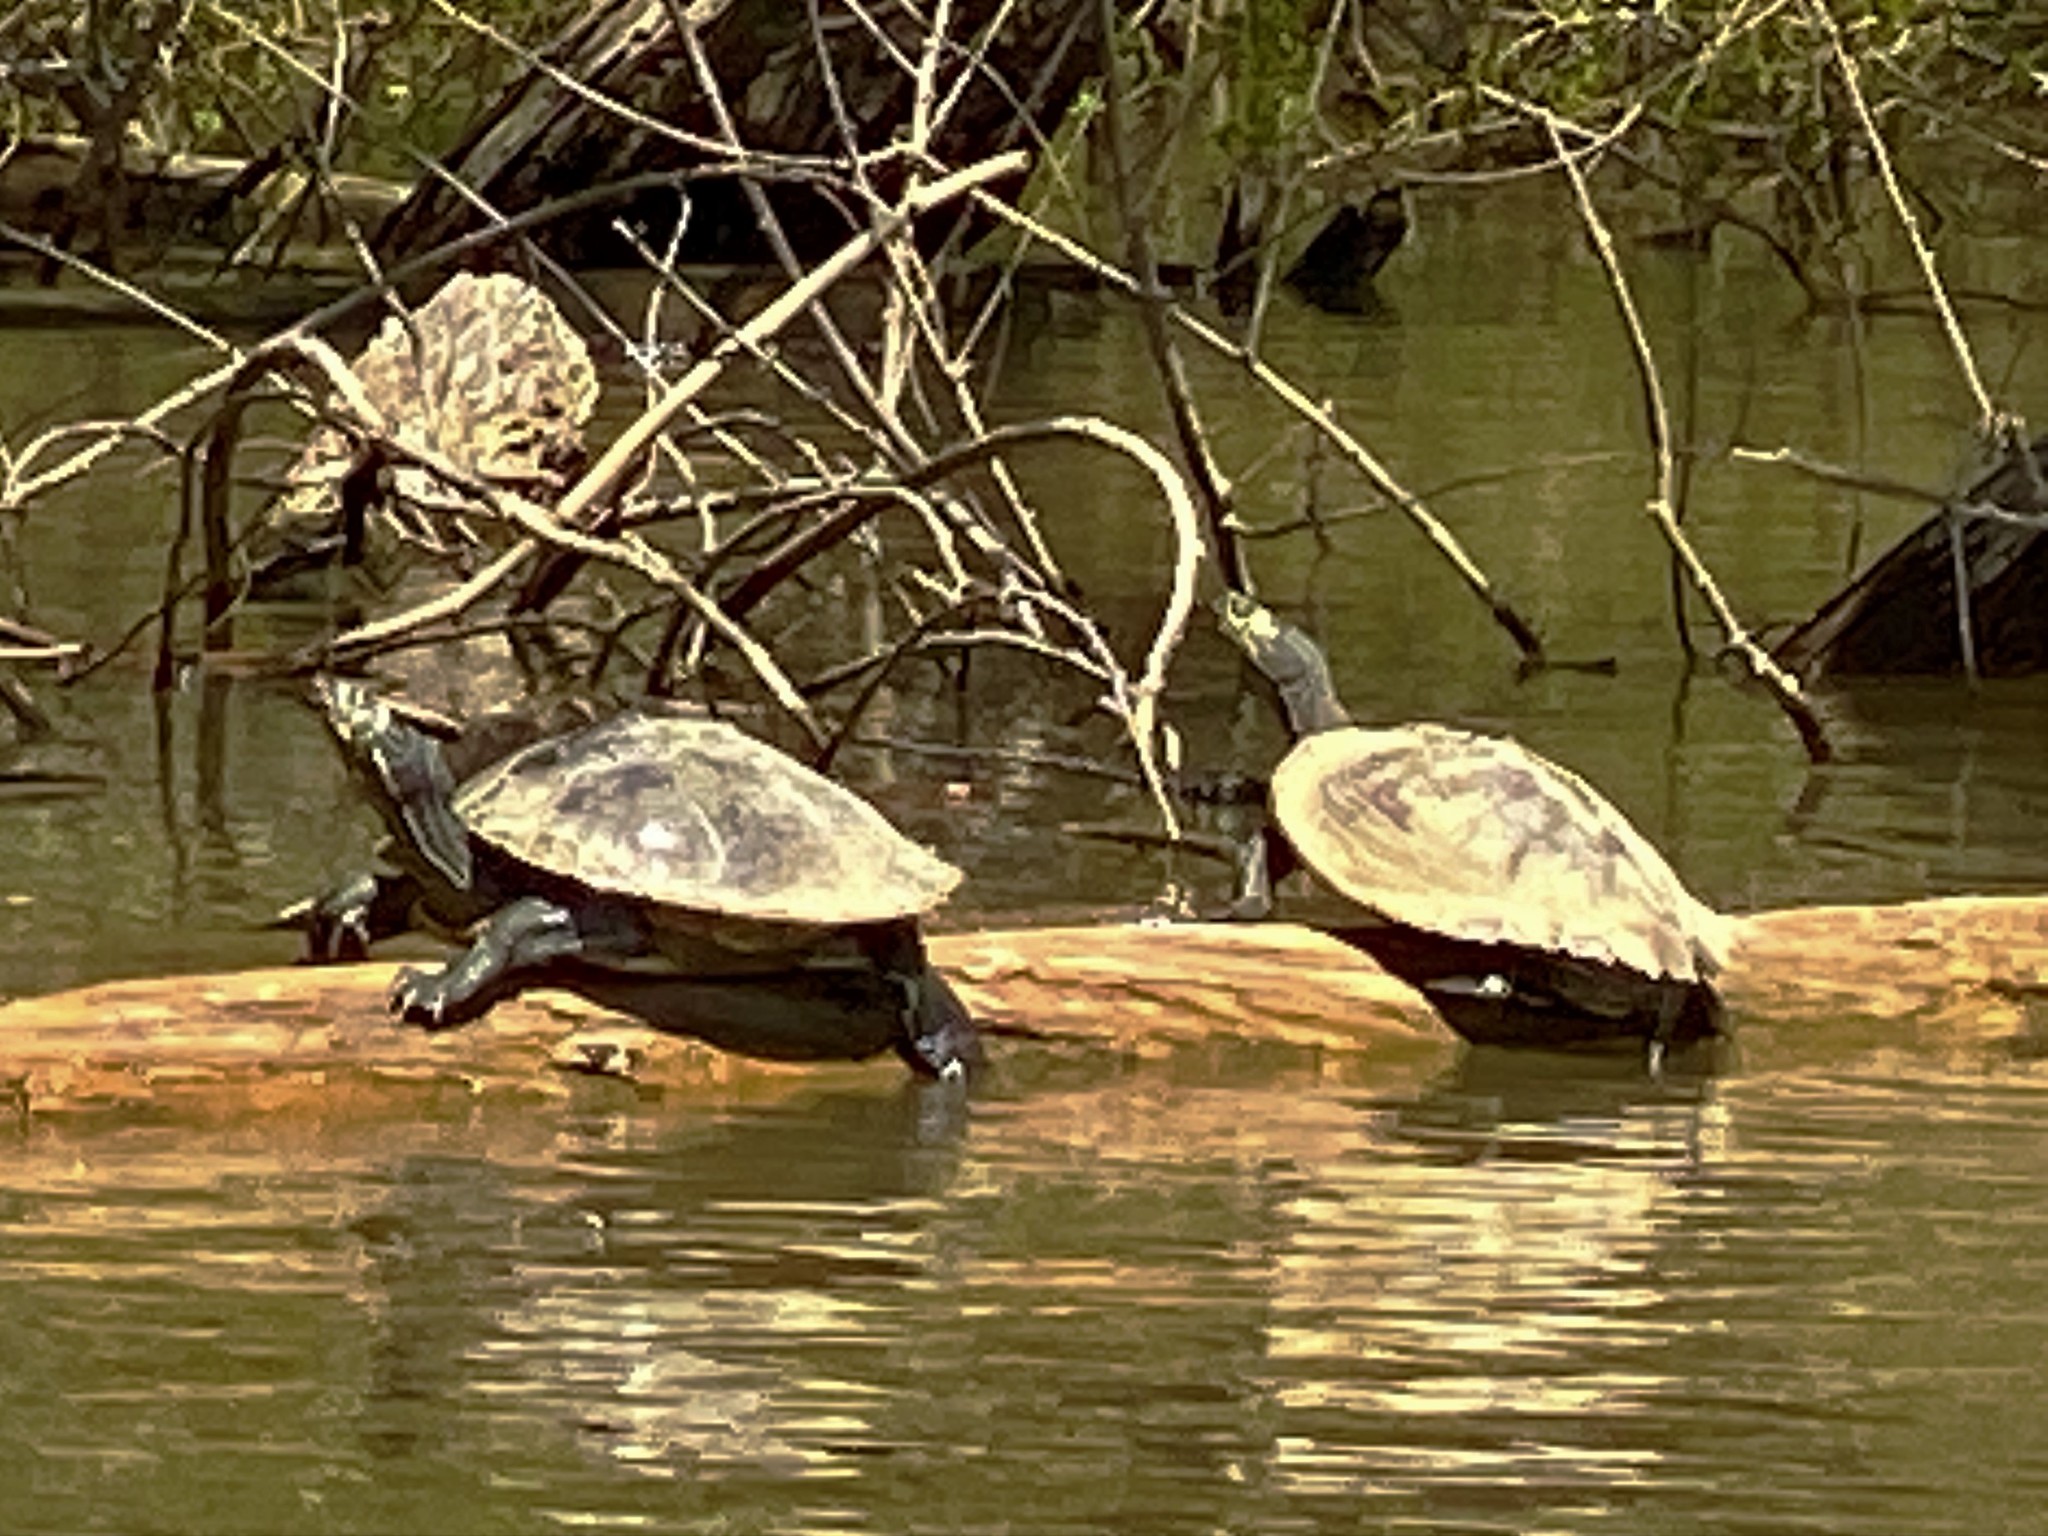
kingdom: Animalia
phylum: Chordata
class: Testudines
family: Emydidae
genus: Graptemys
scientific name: Graptemys ouachitensis
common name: Ouachita map turtle
